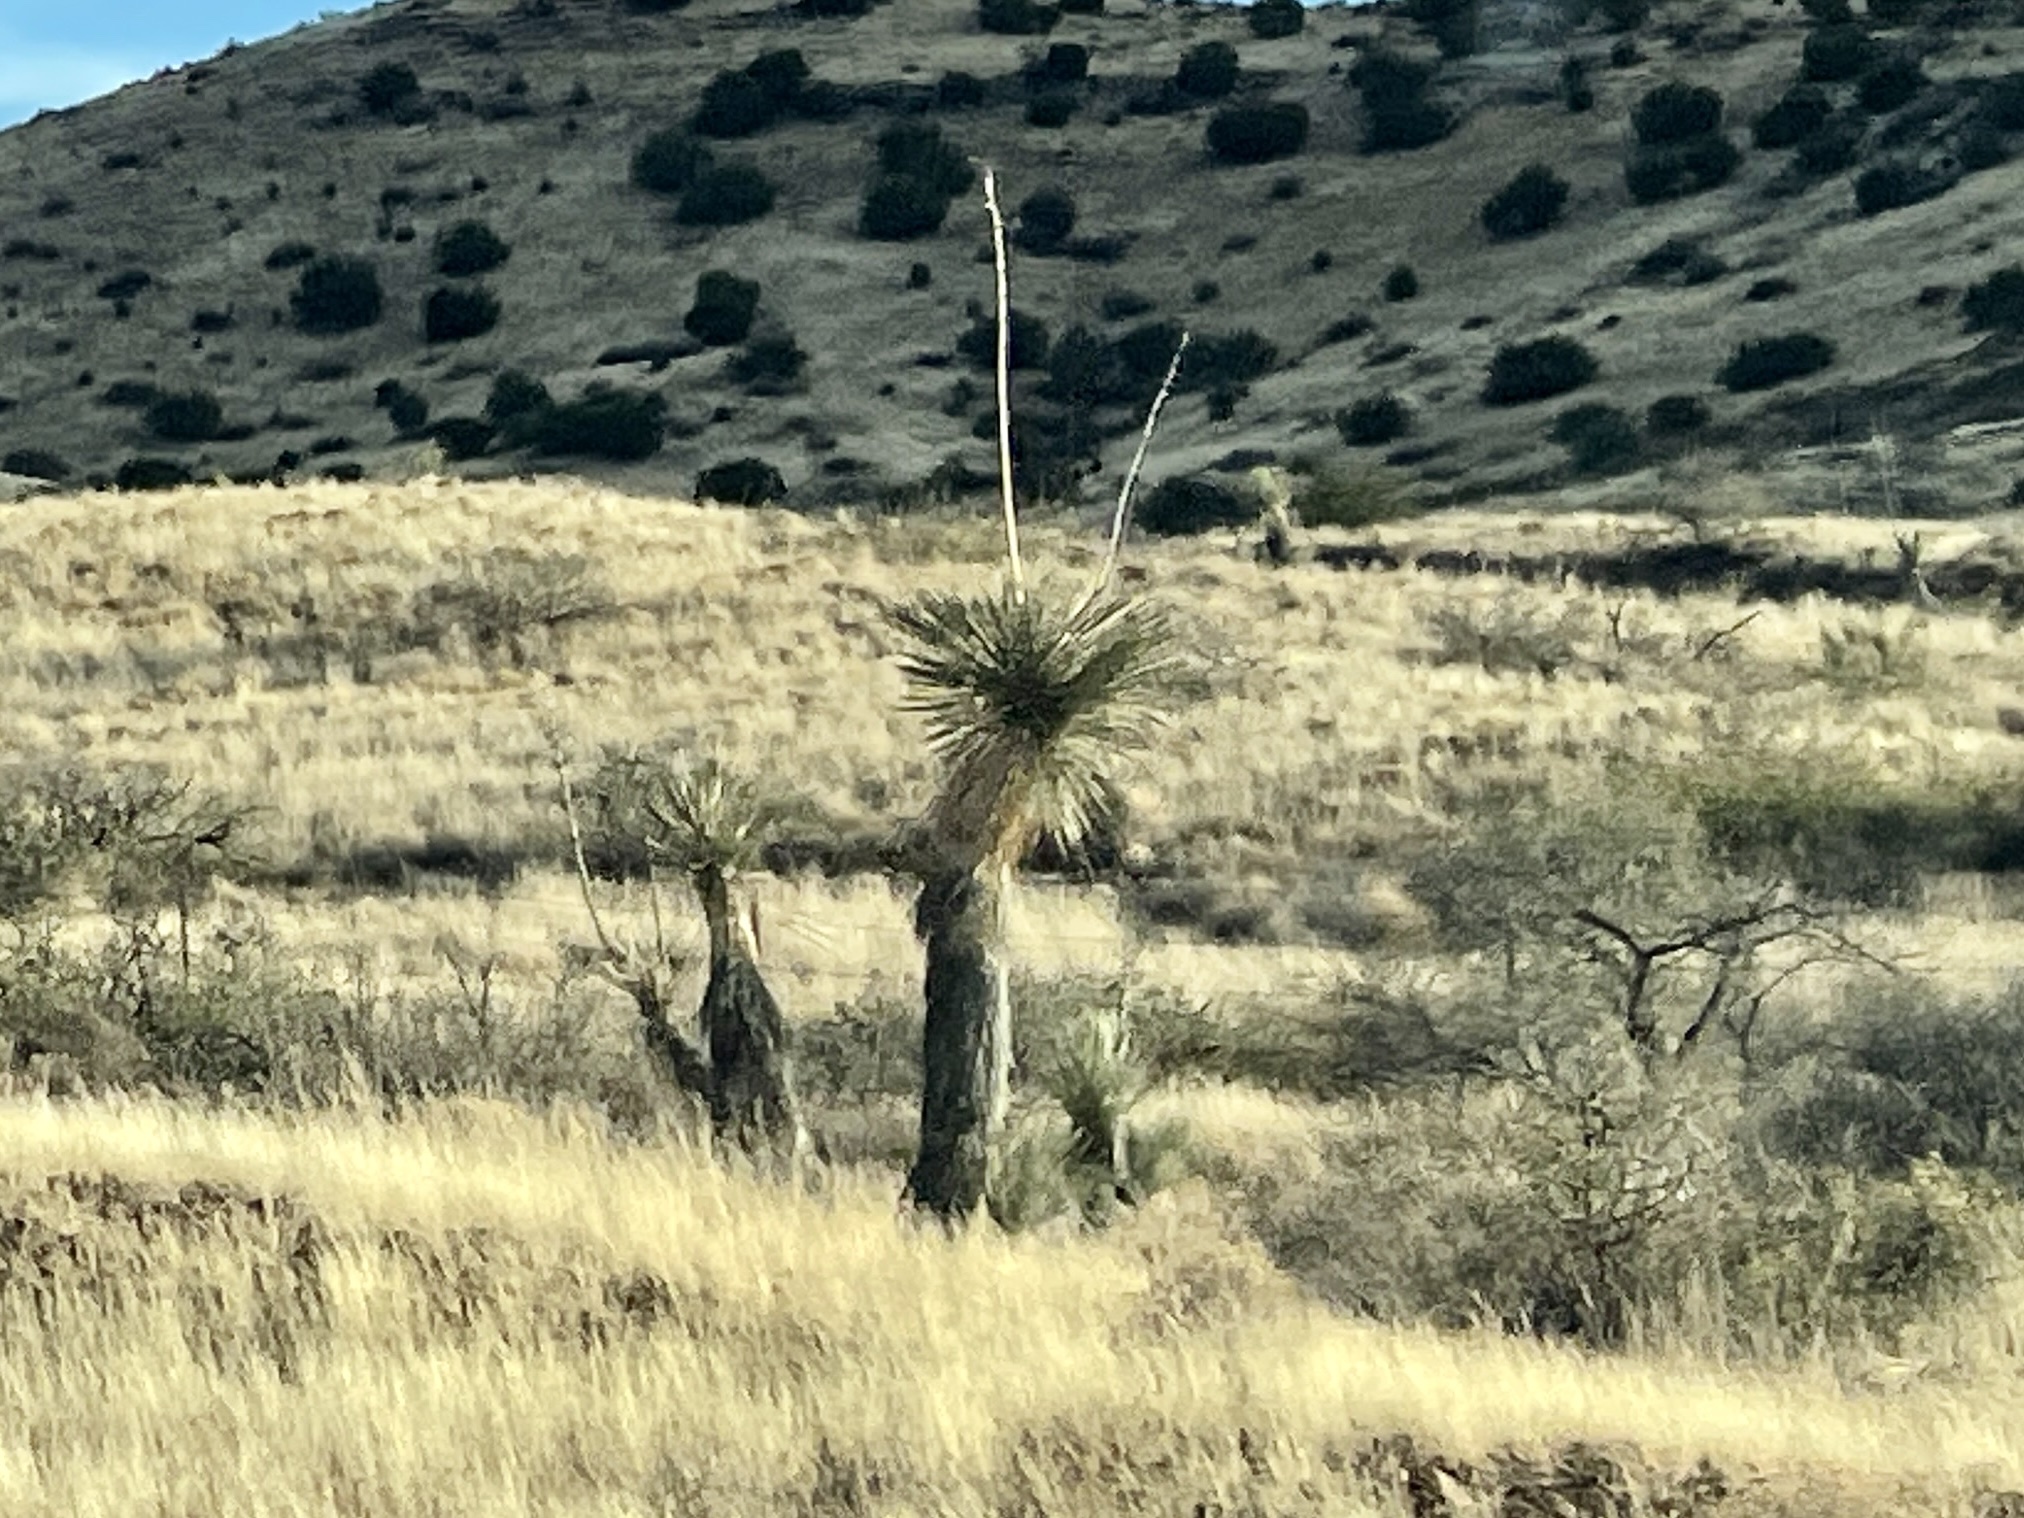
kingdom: Plantae
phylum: Tracheophyta
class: Liliopsida
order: Asparagales
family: Asparagaceae
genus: Yucca
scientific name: Yucca elata
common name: Palmella
